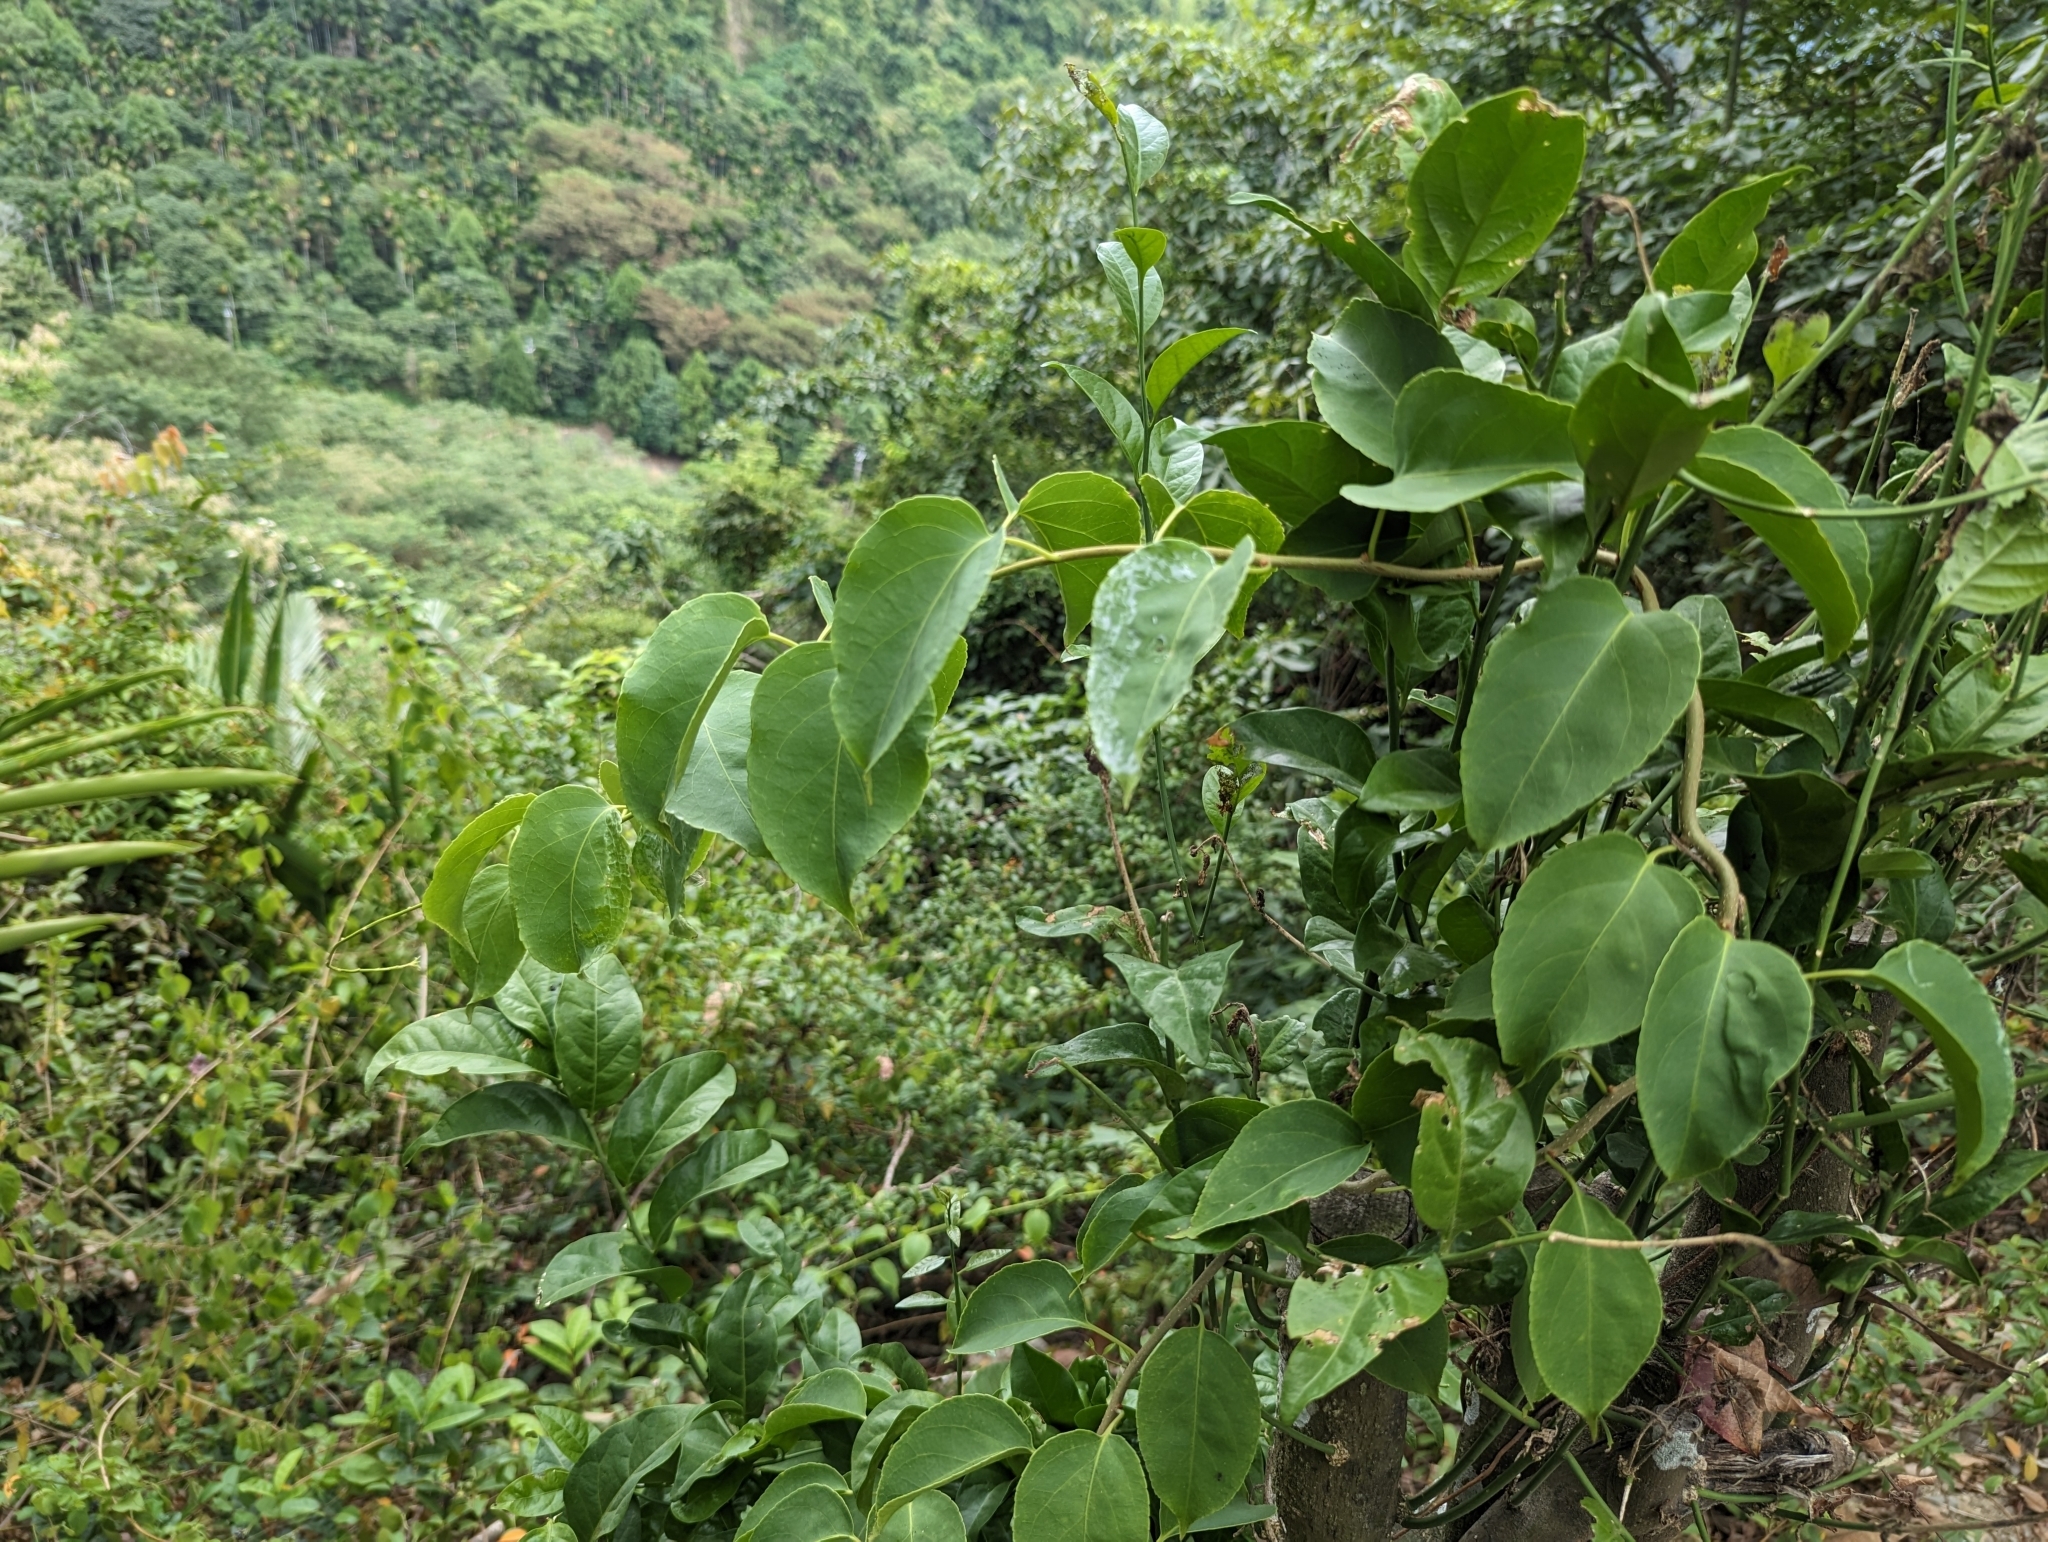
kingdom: Plantae
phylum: Tracheophyta
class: Magnoliopsida
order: Celastrales
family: Celastraceae
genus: Celastrus
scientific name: Celastrus kusanoi
